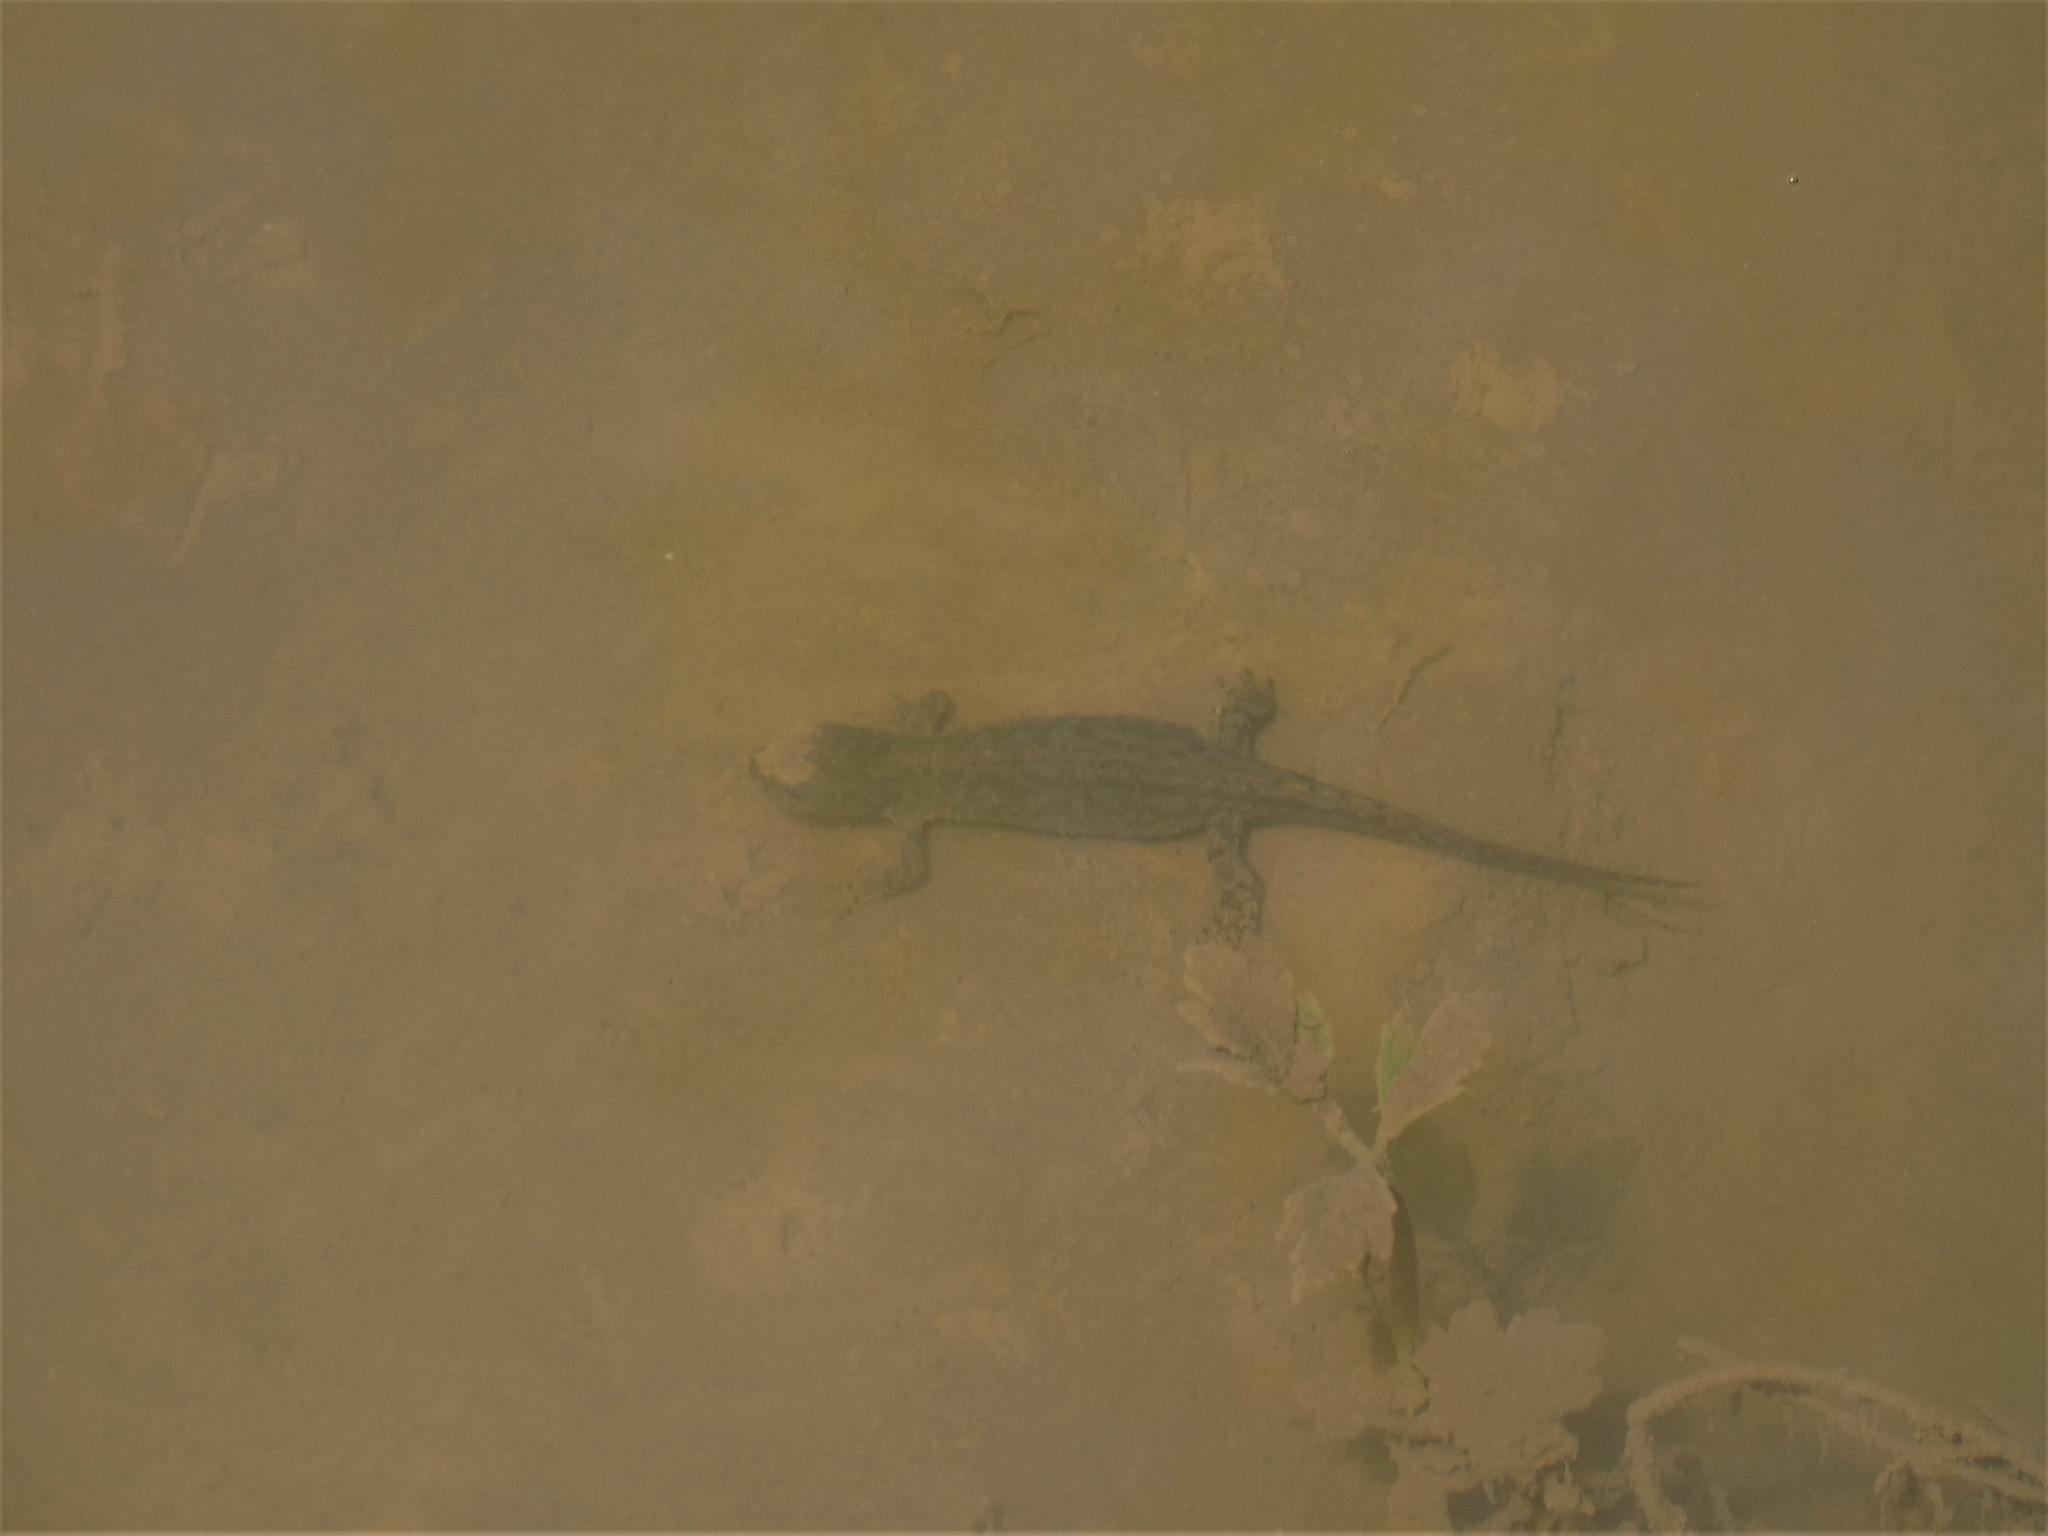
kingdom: Animalia
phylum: Chordata
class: Amphibia
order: Caudata
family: Salamandridae
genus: Ichthyosaura
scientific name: Ichthyosaura alpestris
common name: Alpine newt
